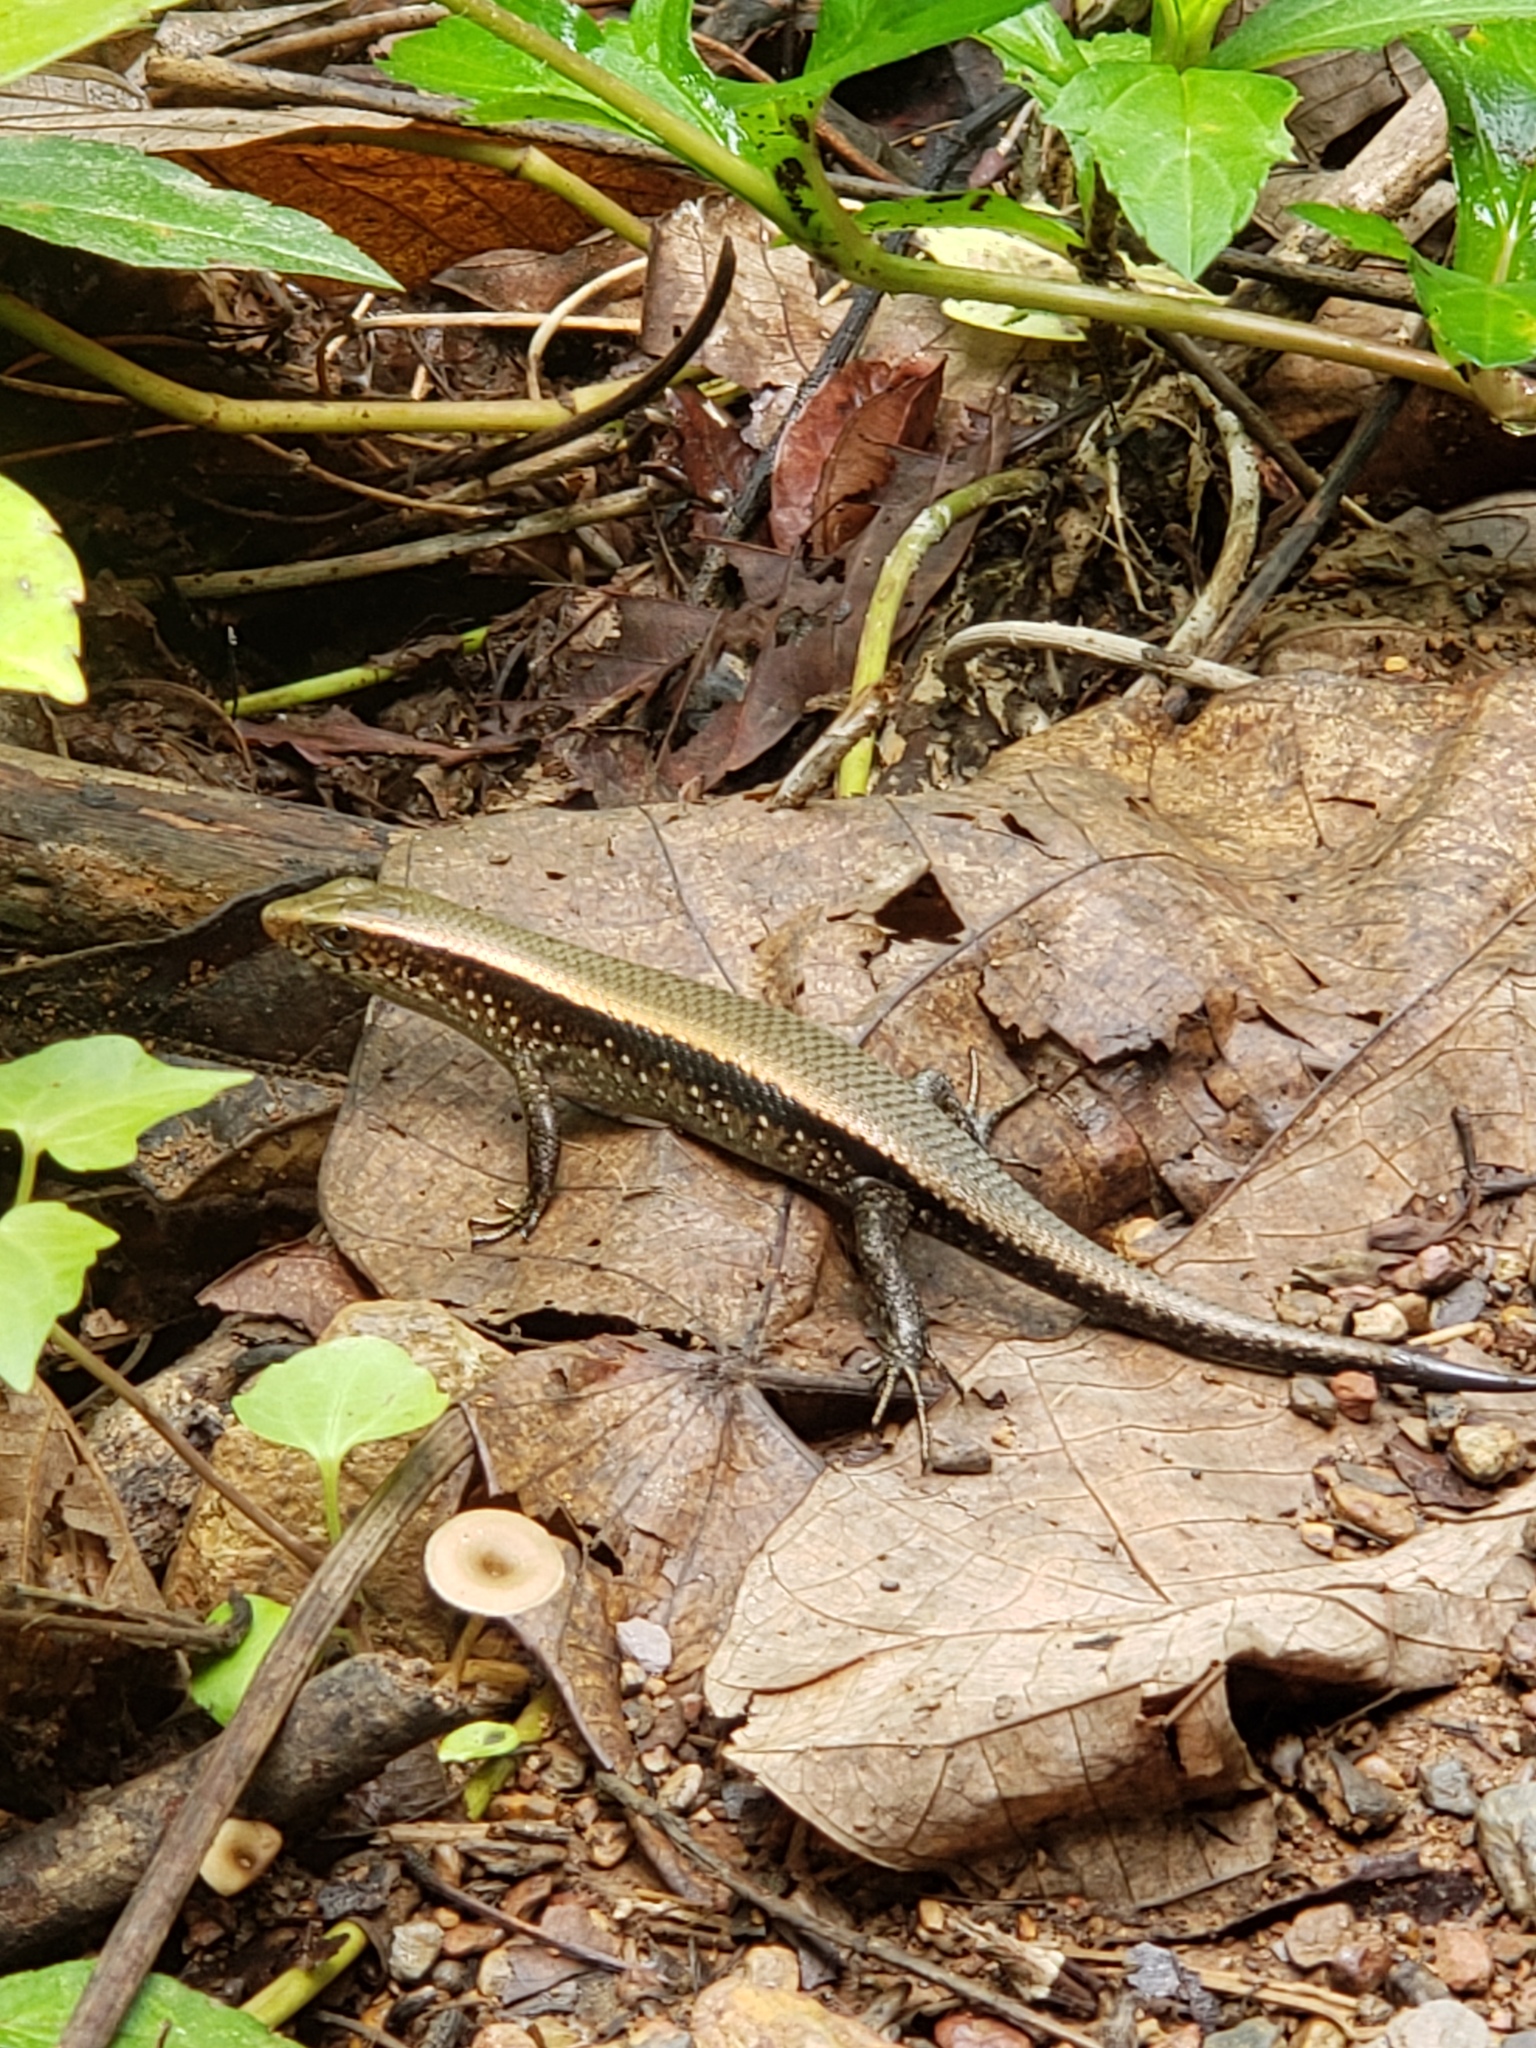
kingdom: Animalia
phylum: Chordata
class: Squamata
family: Scincidae
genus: Eutropis
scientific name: Eutropis multifasciata
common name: Common mabuya
